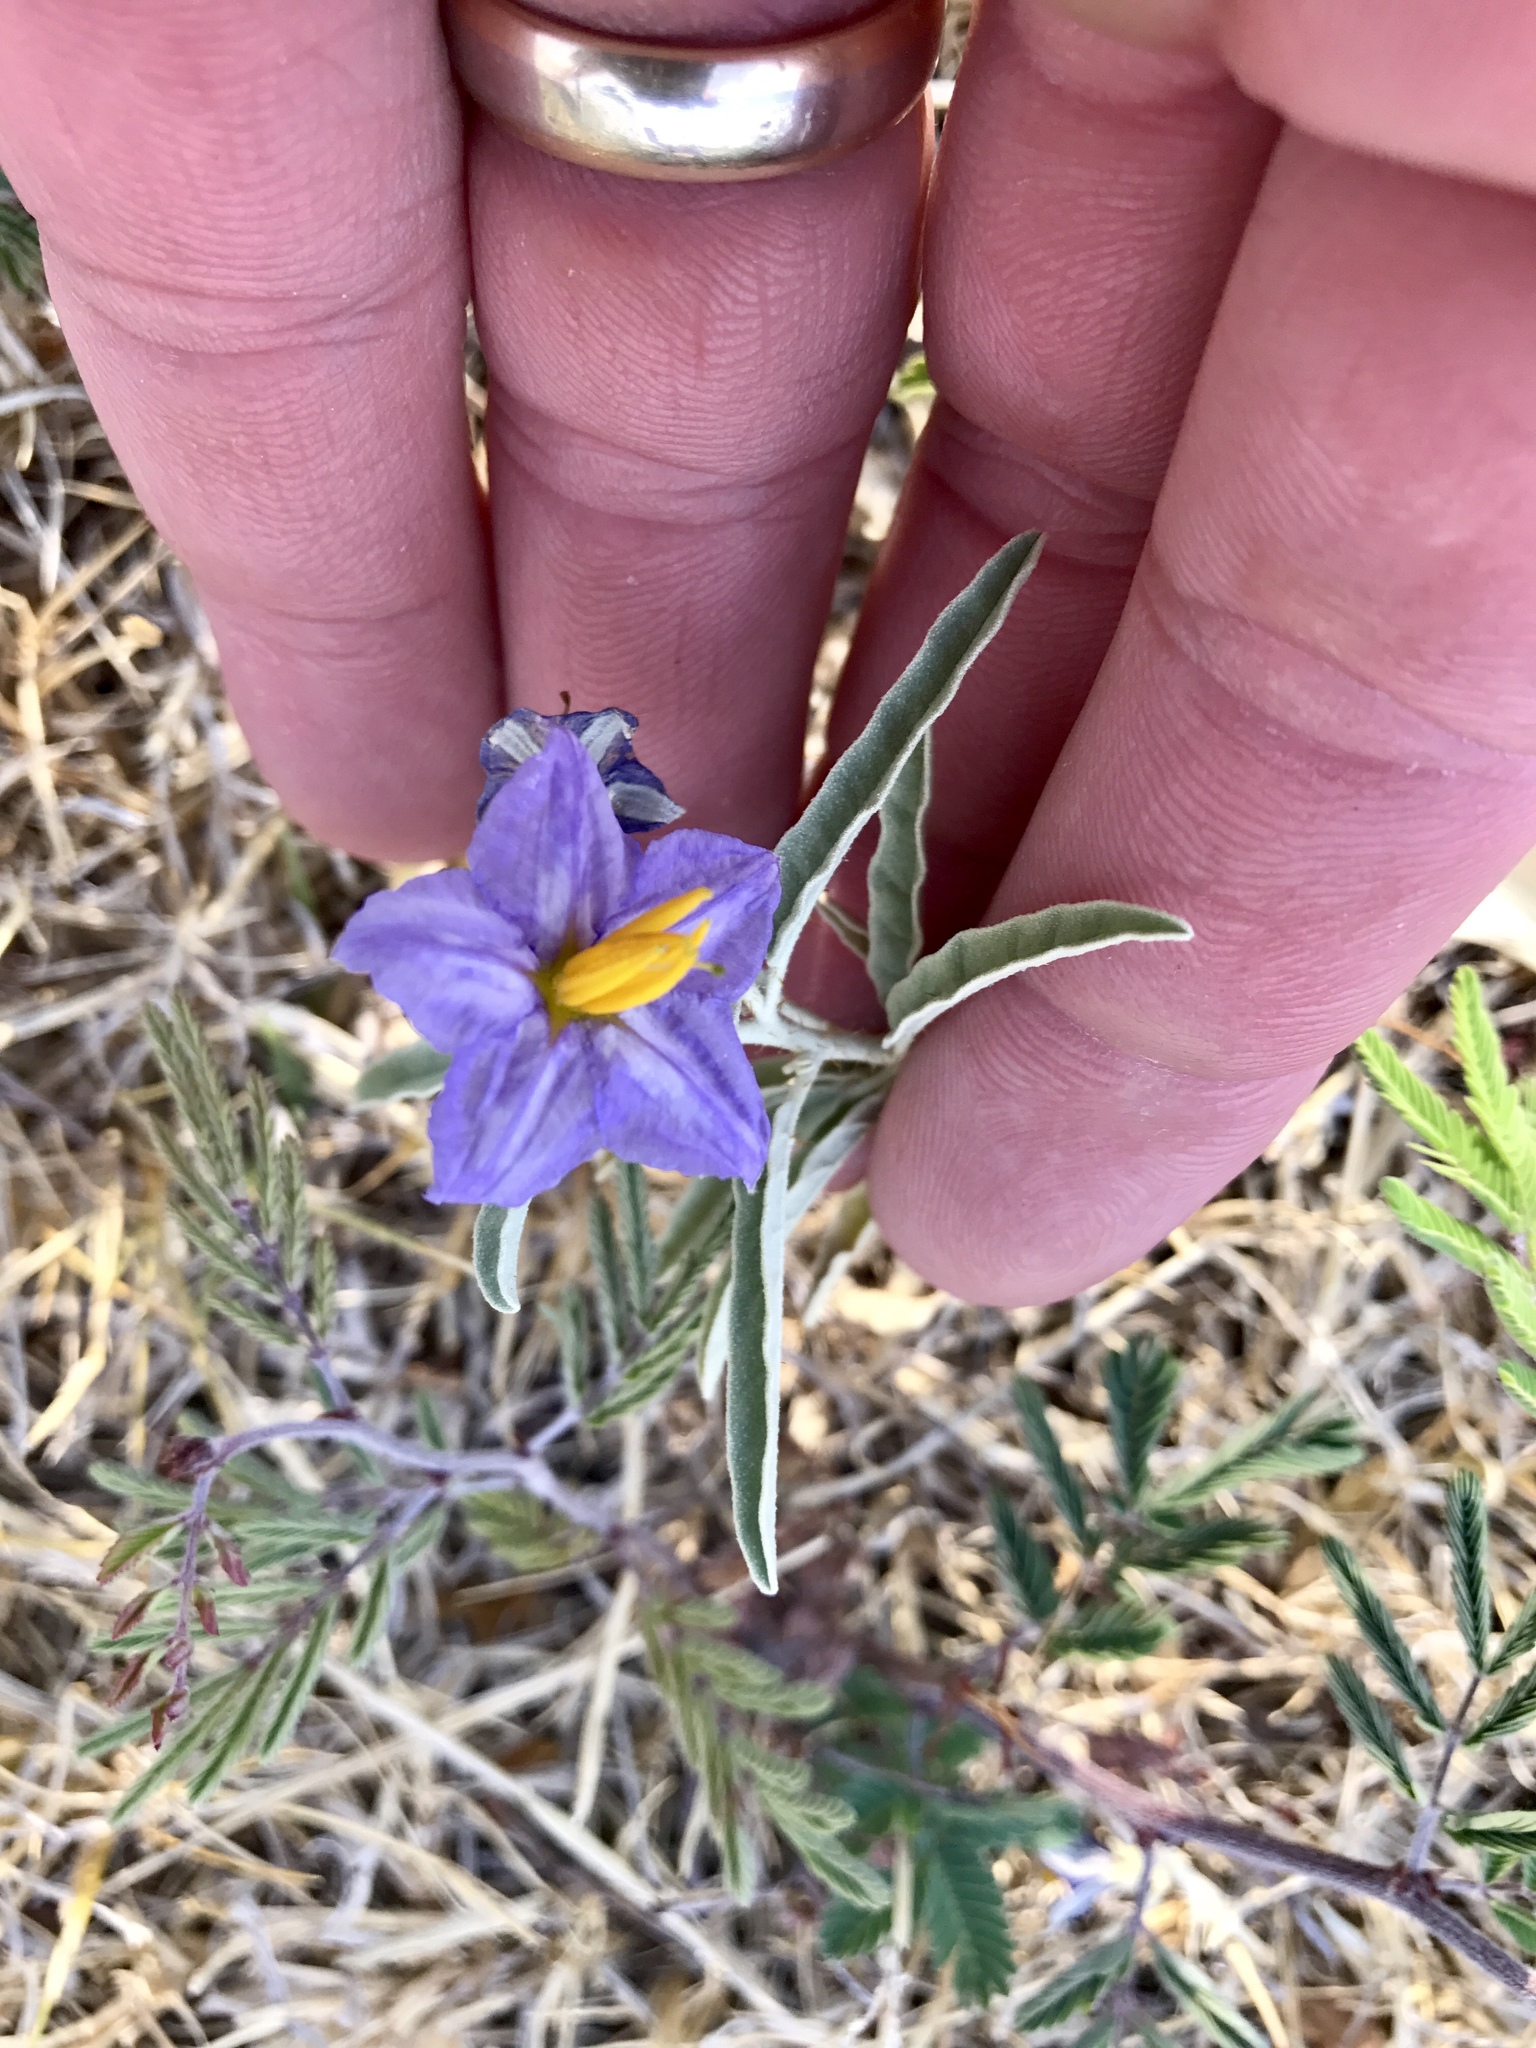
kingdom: Plantae
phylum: Tracheophyta
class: Magnoliopsida
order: Solanales
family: Solanaceae
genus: Solanum
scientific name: Solanum elaeagnifolium
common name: Silverleaf nightshade
